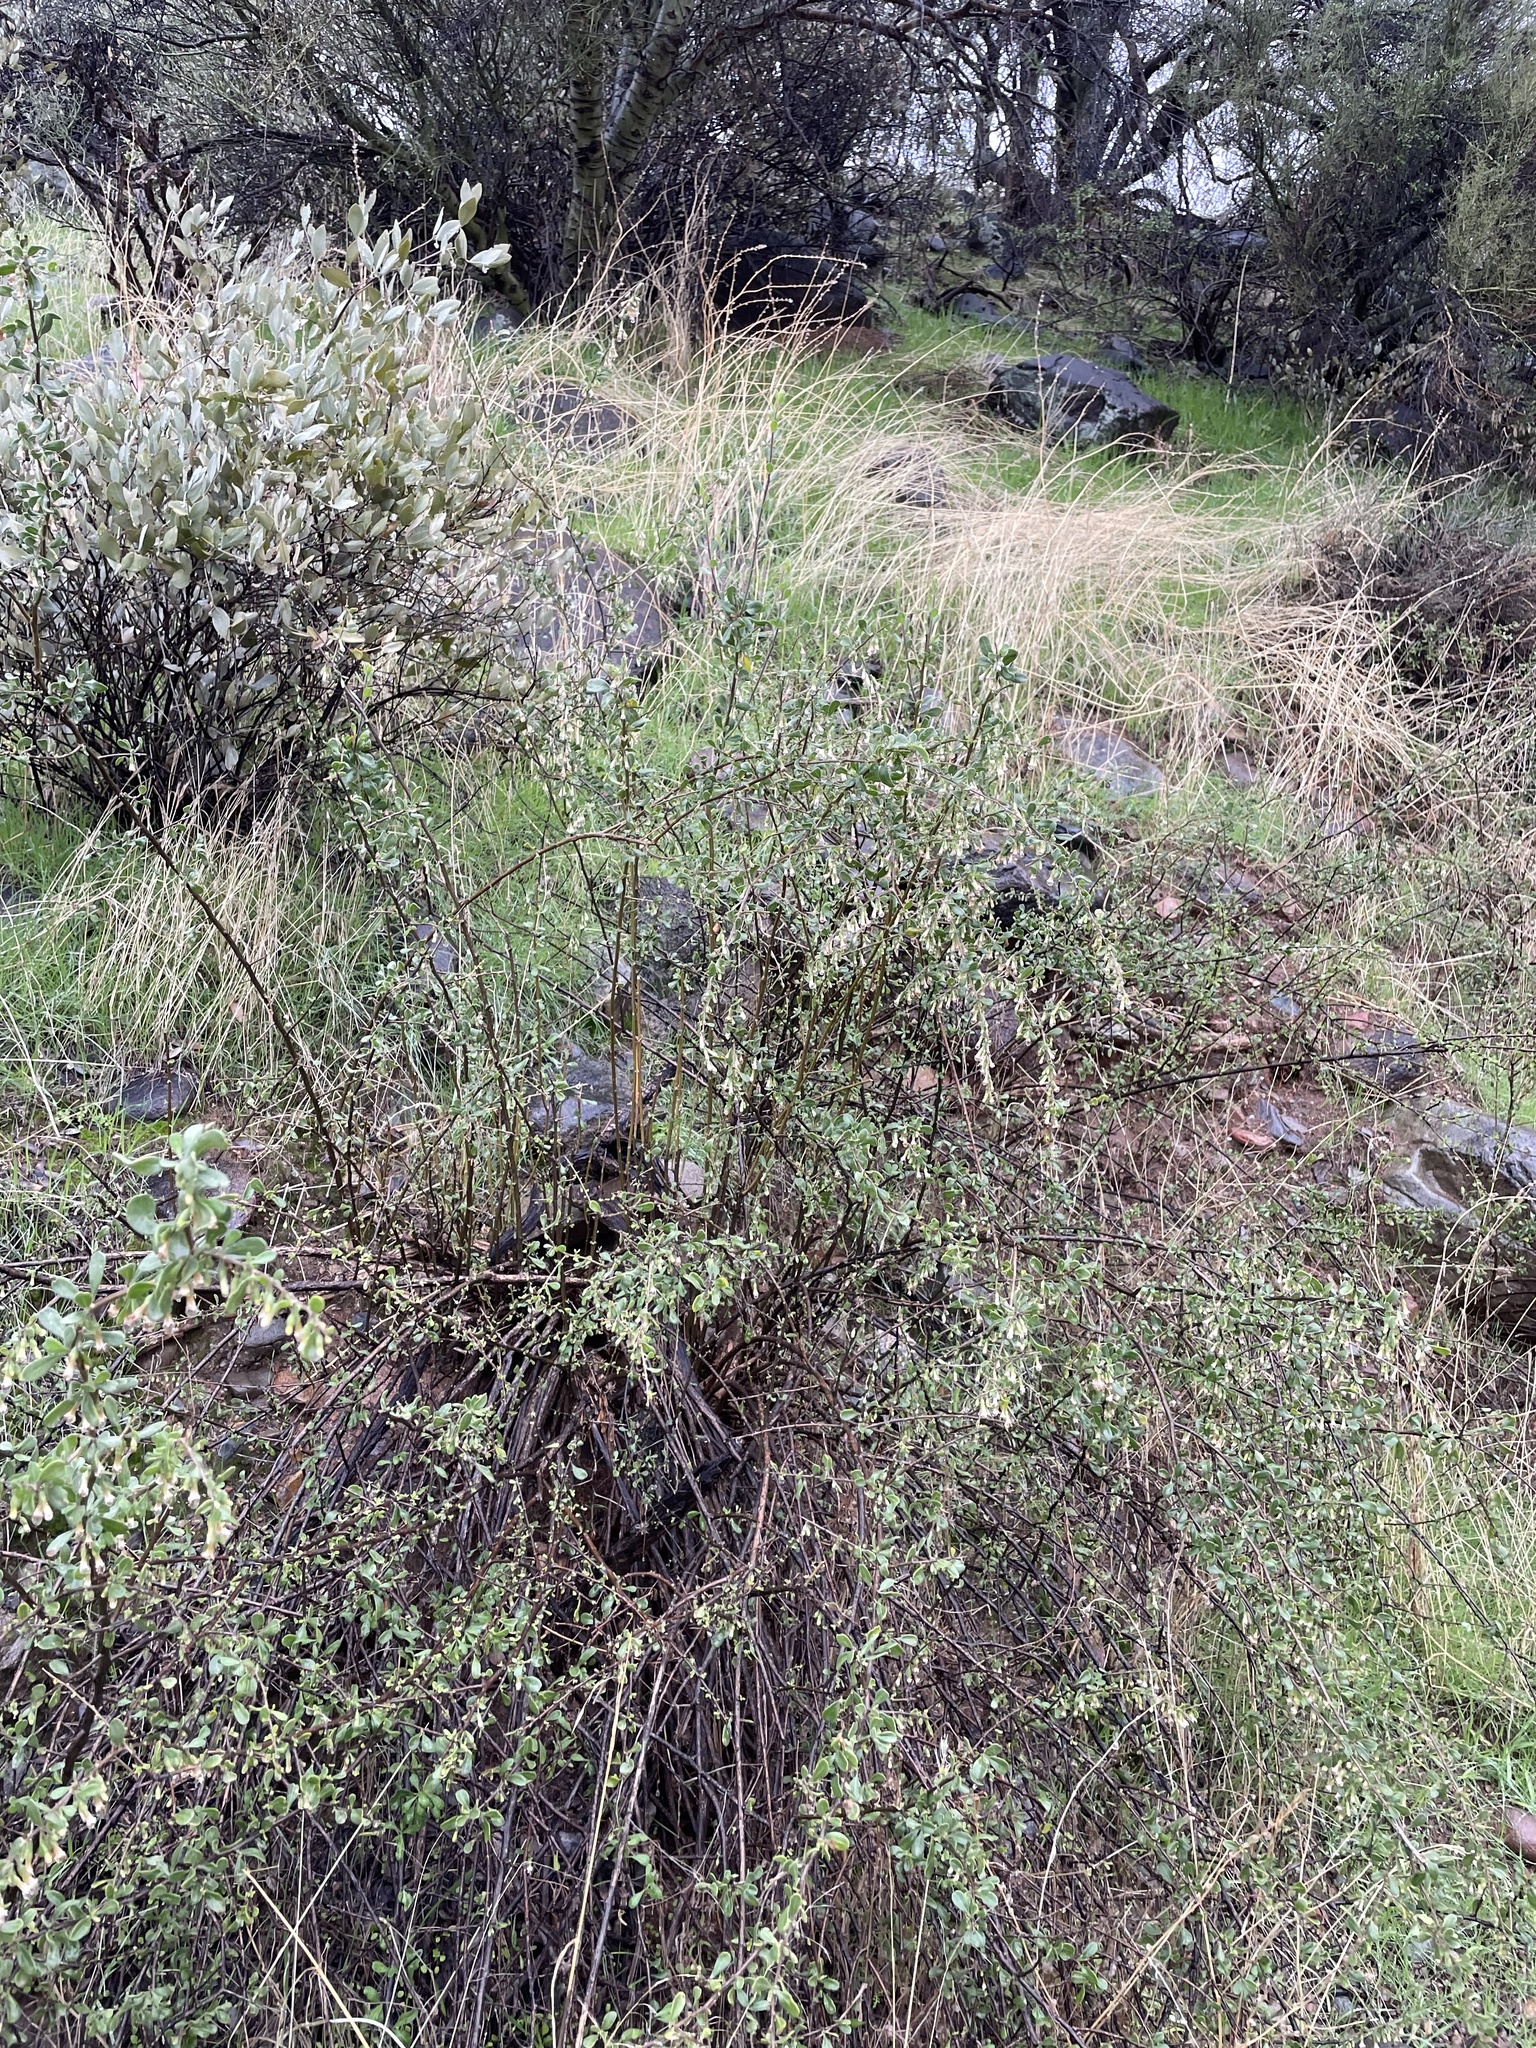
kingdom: Plantae
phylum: Tracheophyta
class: Magnoliopsida
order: Solanales
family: Solanaceae
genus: Lycium
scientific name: Lycium exsertum
